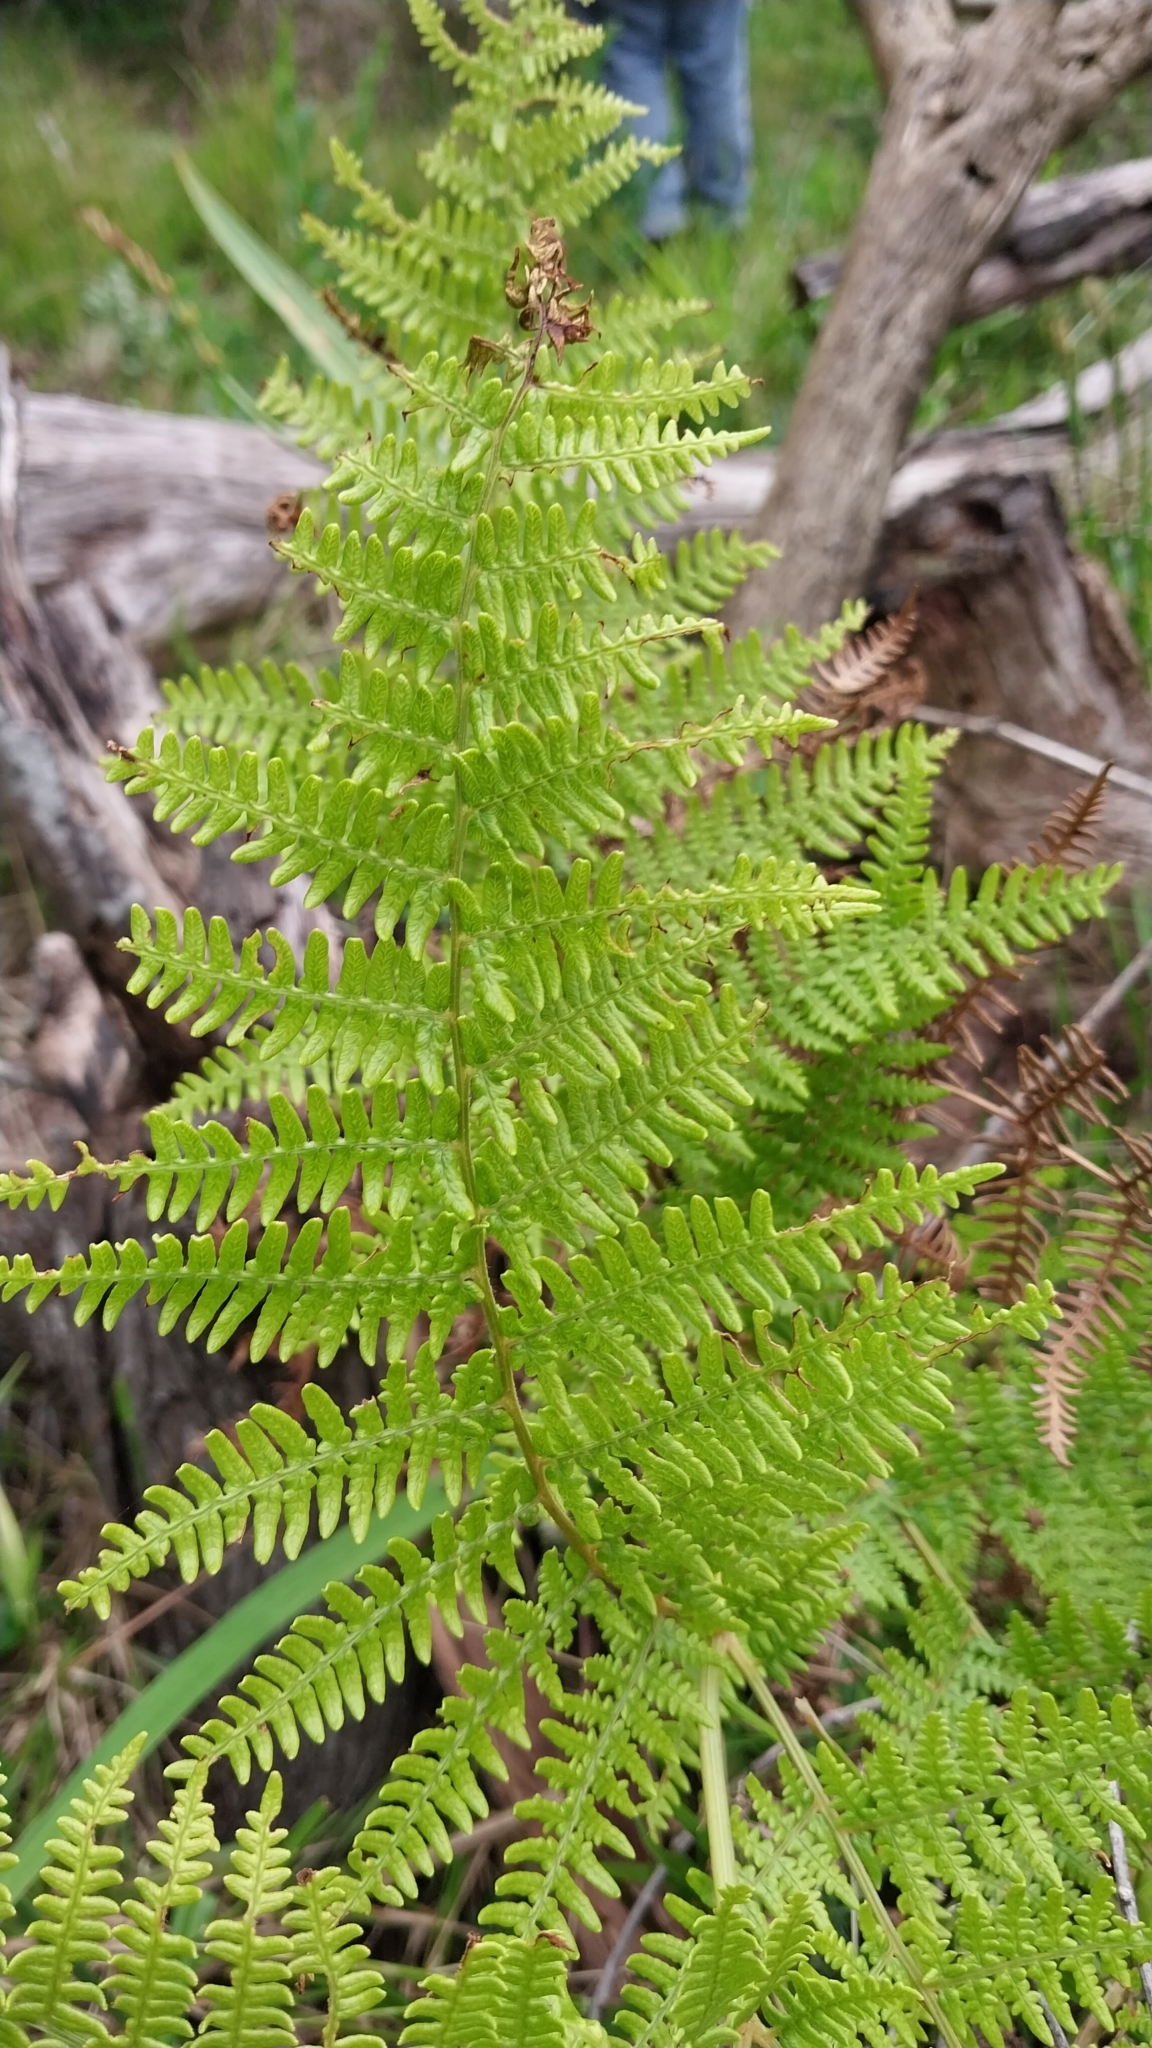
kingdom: Plantae
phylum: Tracheophyta
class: Polypodiopsida
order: Polypodiales
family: Dennstaedtiaceae
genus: Pteridium
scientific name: Pteridium aquilinum
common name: Bracken
